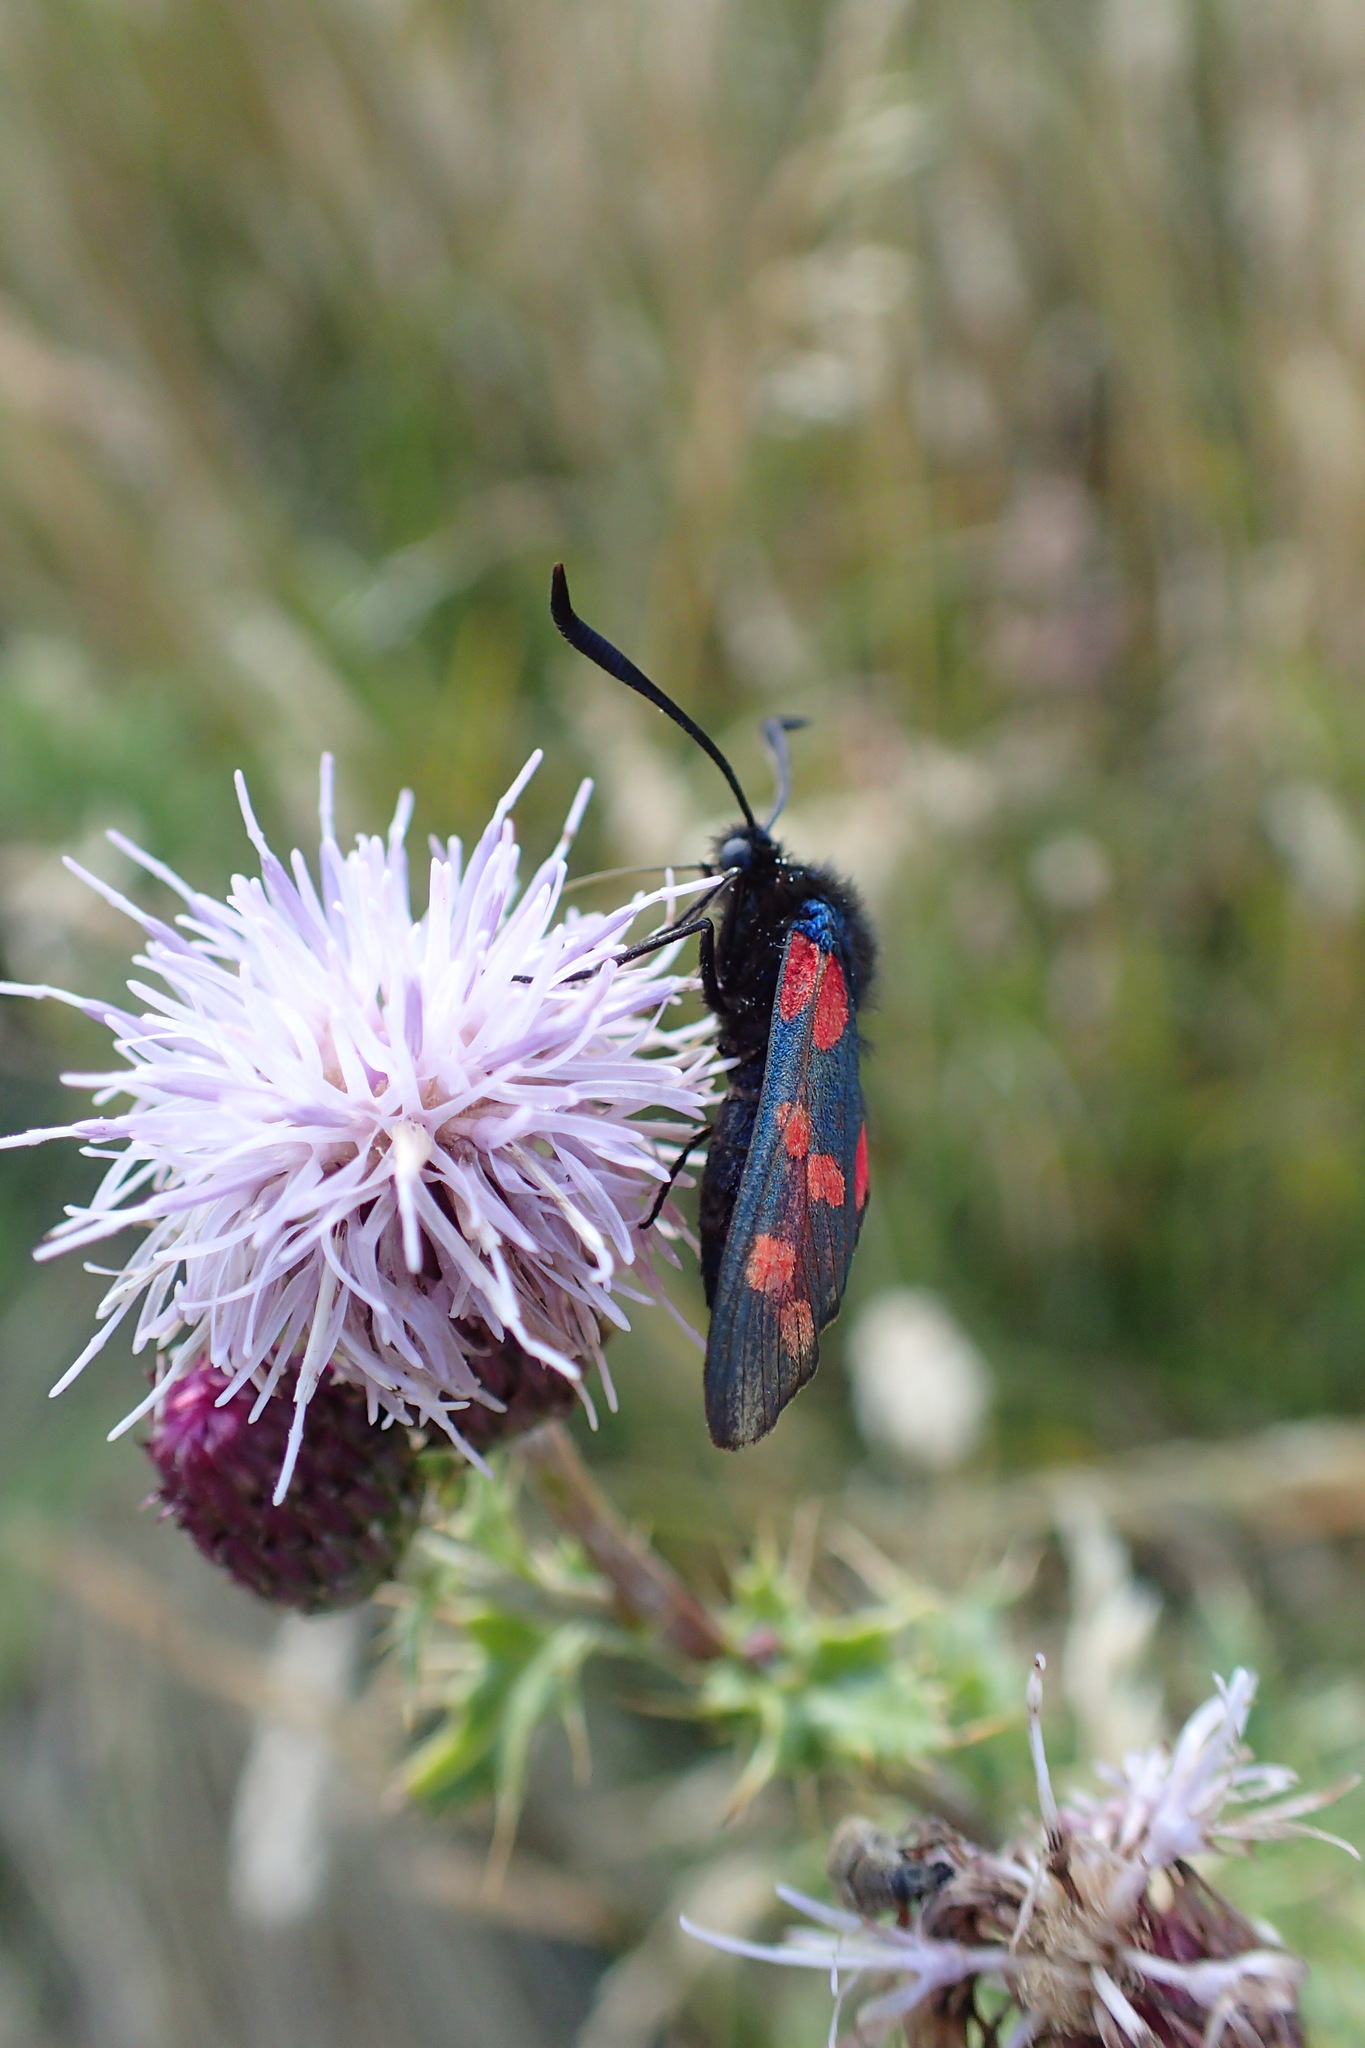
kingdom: Animalia
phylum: Arthropoda
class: Insecta
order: Lepidoptera
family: Zygaenidae
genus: Zygaena
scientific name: Zygaena filipendulae
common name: Six-spot burnet
